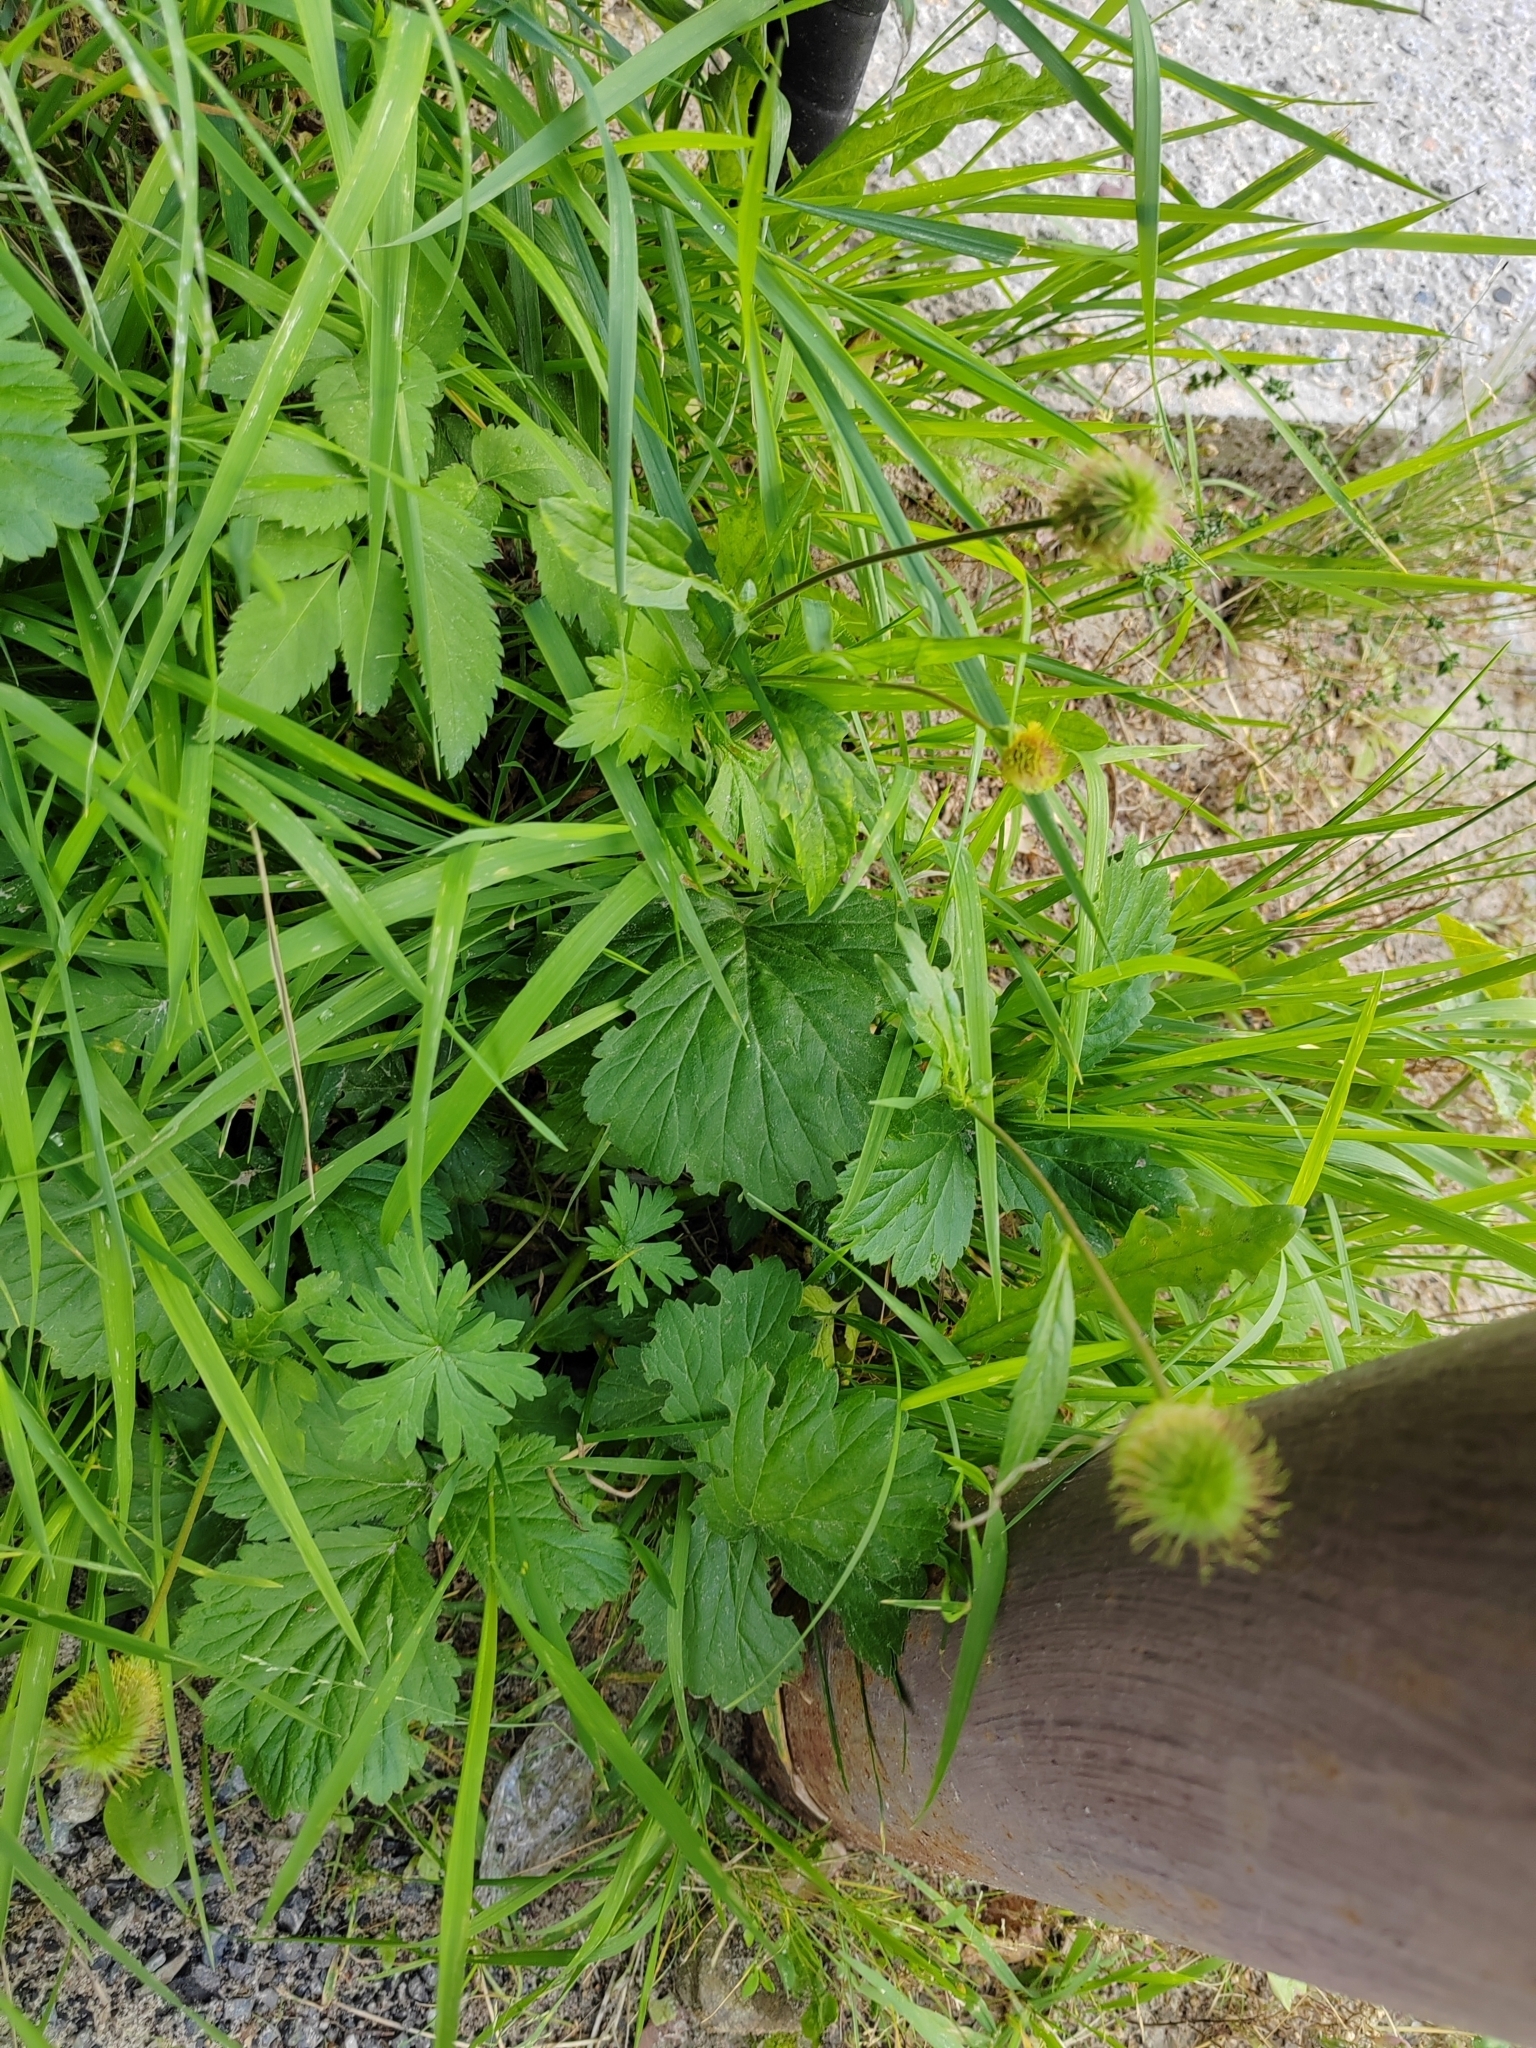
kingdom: Plantae
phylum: Tracheophyta
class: Magnoliopsida
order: Rosales
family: Rosaceae
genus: Geum
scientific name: Geum aleppicum
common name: Yellow avens
